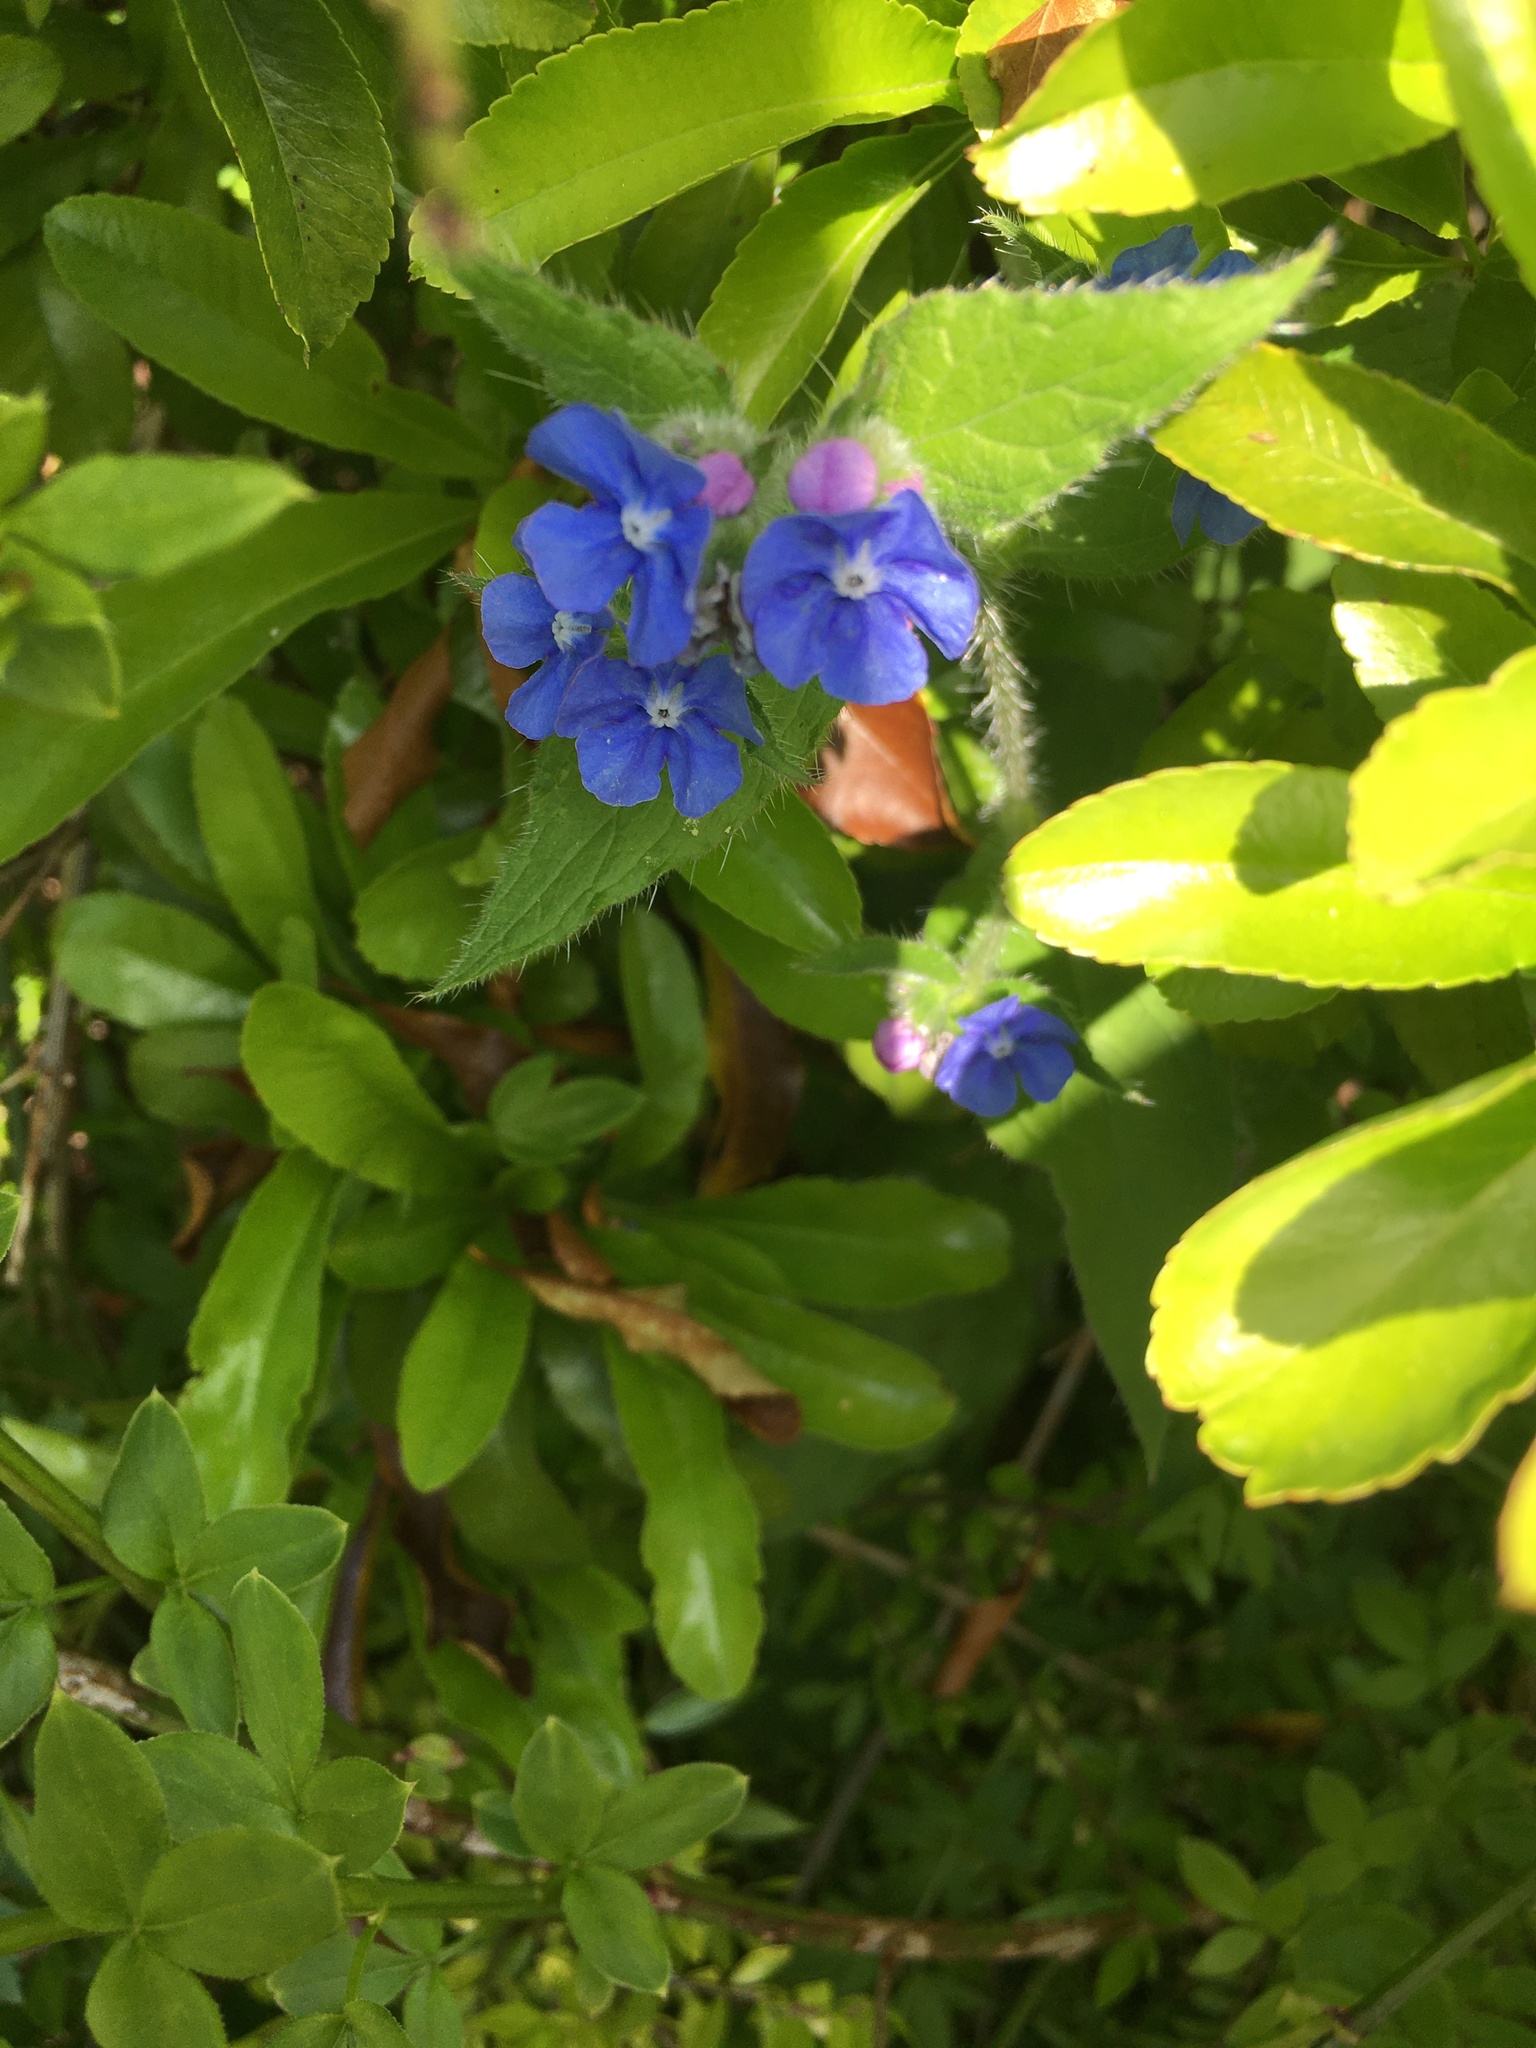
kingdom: Plantae
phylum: Tracheophyta
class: Magnoliopsida
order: Boraginales
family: Boraginaceae
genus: Pentaglottis
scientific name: Pentaglottis sempervirens
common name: Green alkanet
